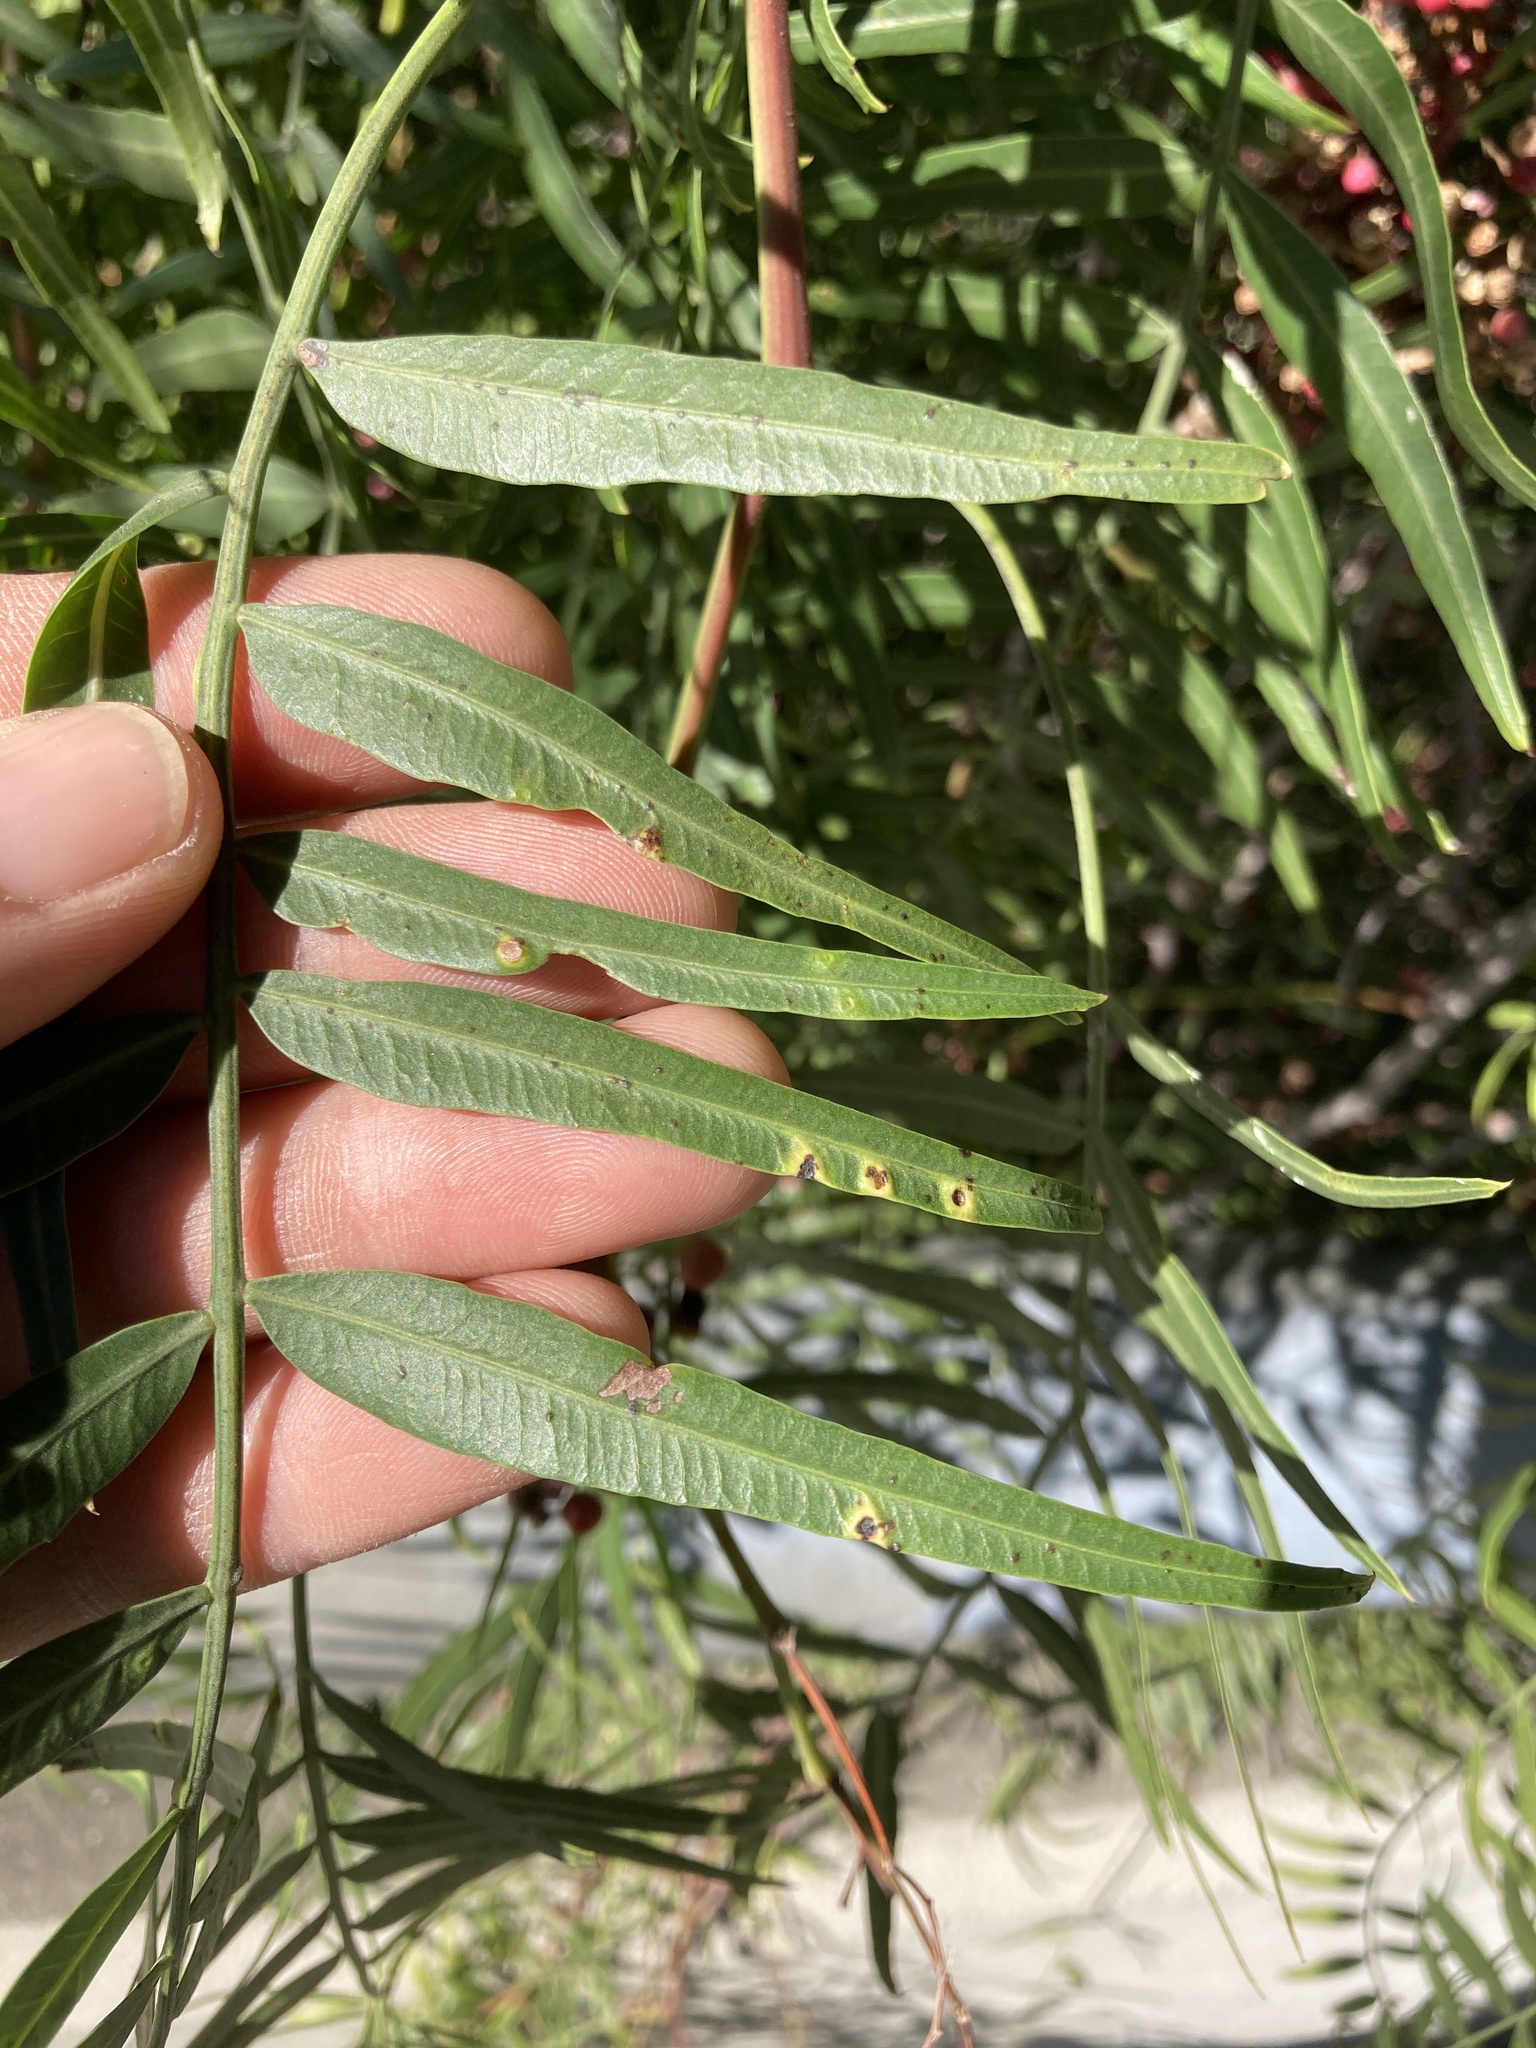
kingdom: Animalia
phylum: Arthropoda
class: Insecta
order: Hemiptera
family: Calophyidae
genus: Calophya
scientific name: Calophya schini
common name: Pepper tree psyllid
